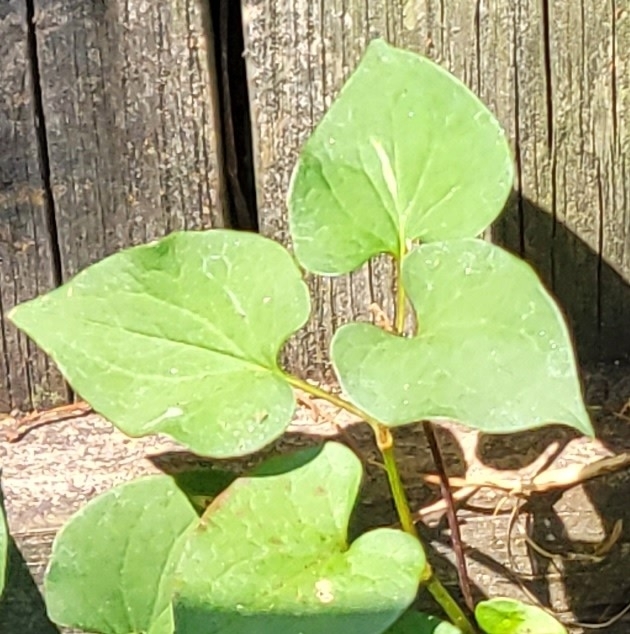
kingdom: Plantae
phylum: Tracheophyta
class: Magnoliopsida
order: Piperales
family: Saururaceae
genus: Houttuynia
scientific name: Houttuynia cordata
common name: Chameleon
